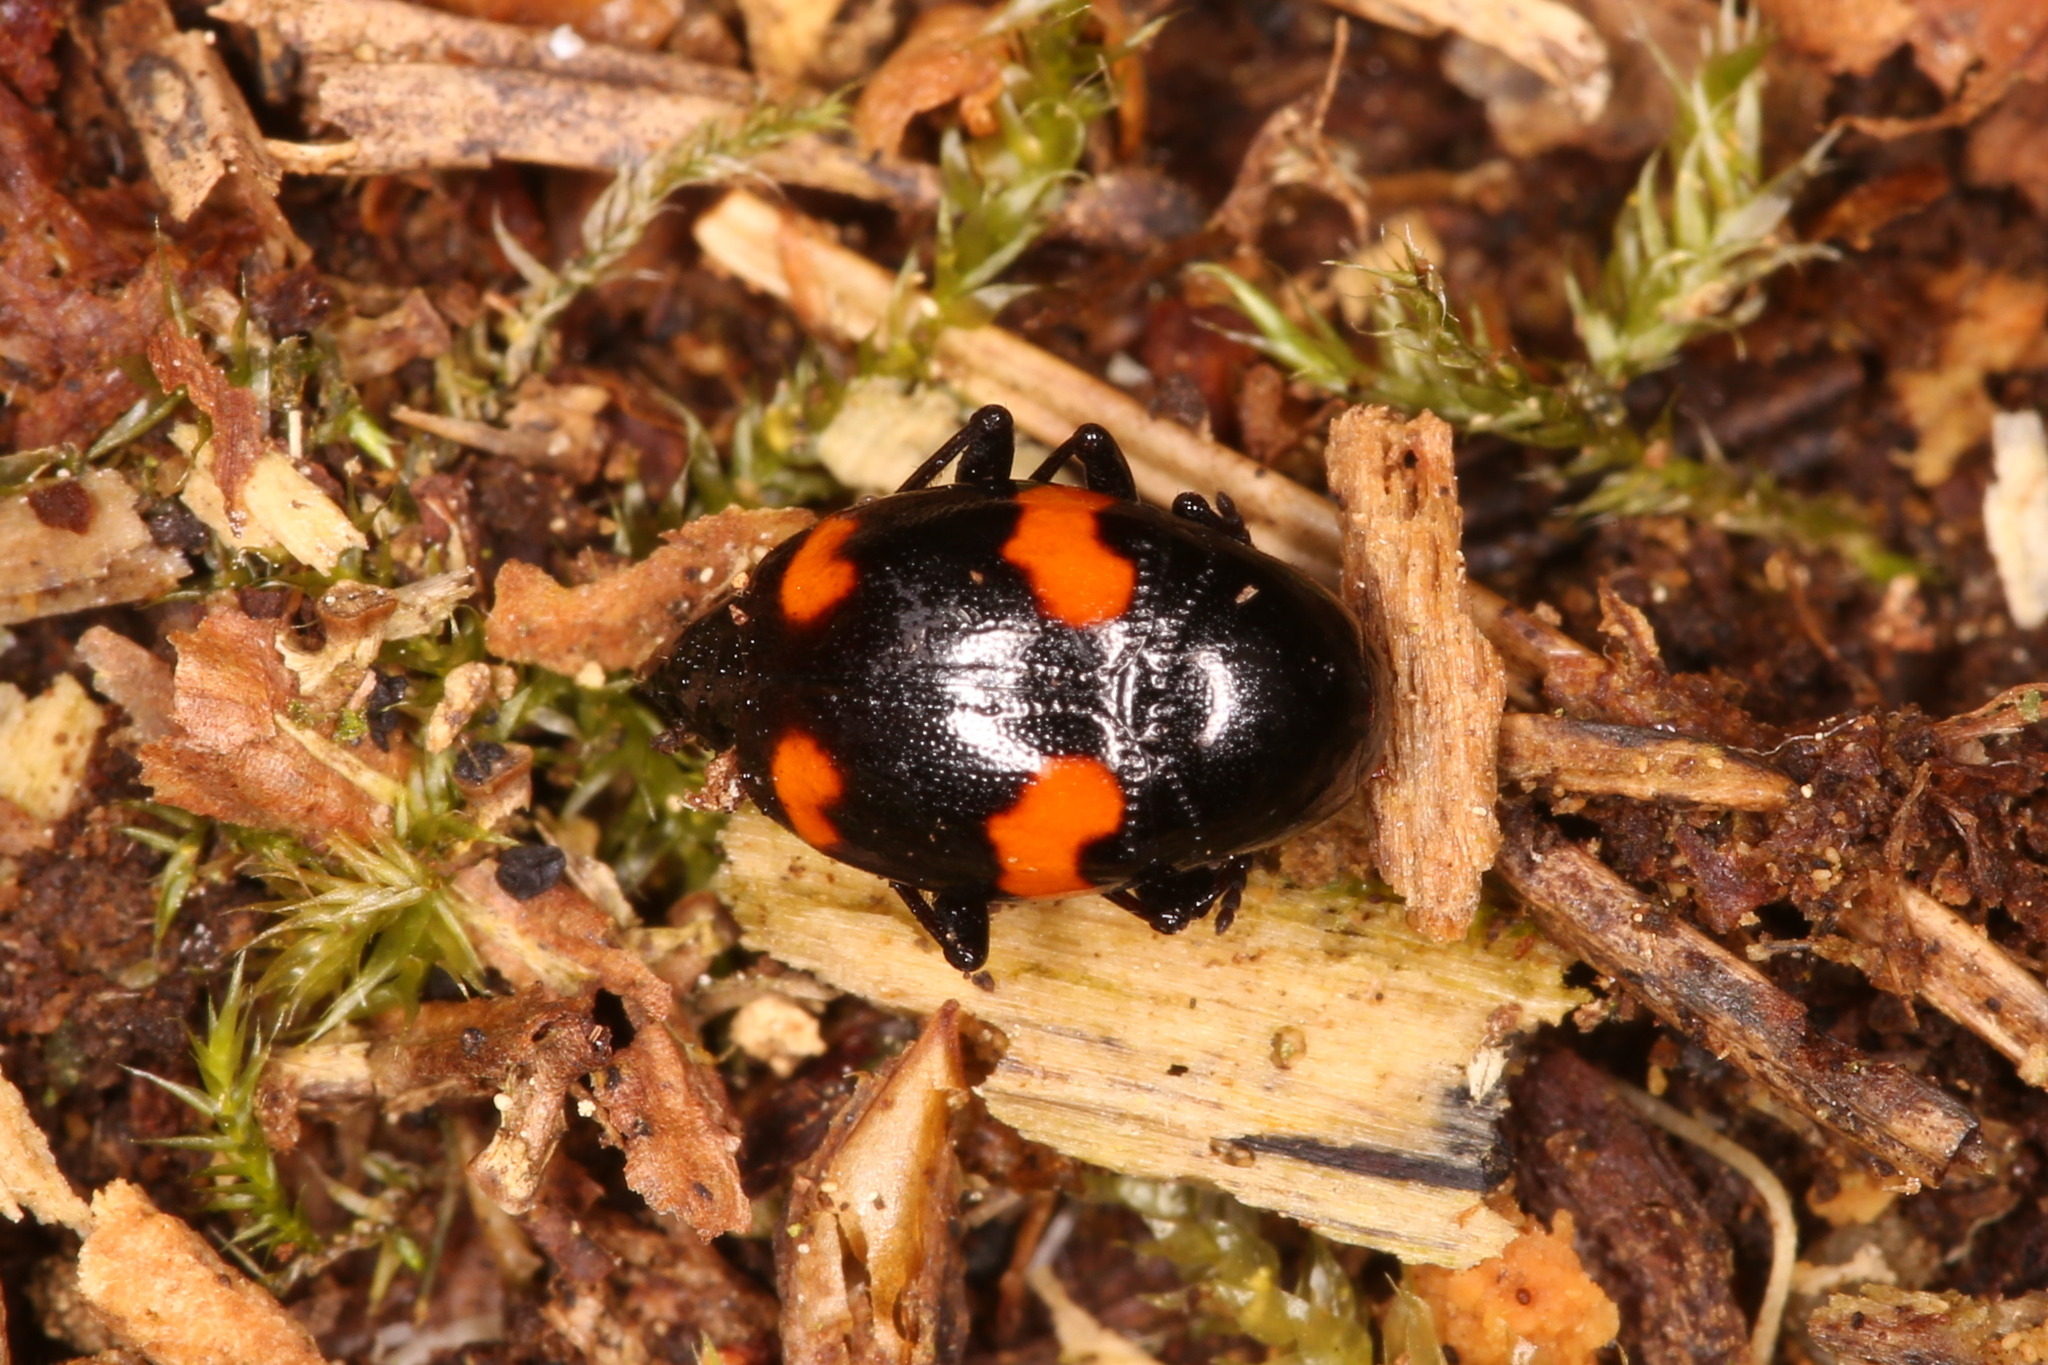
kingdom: Animalia
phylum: Arthropoda
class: Insecta
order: Coleoptera
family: Staphylinidae
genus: Scaphidium
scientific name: Scaphidium quadrimaculatum
